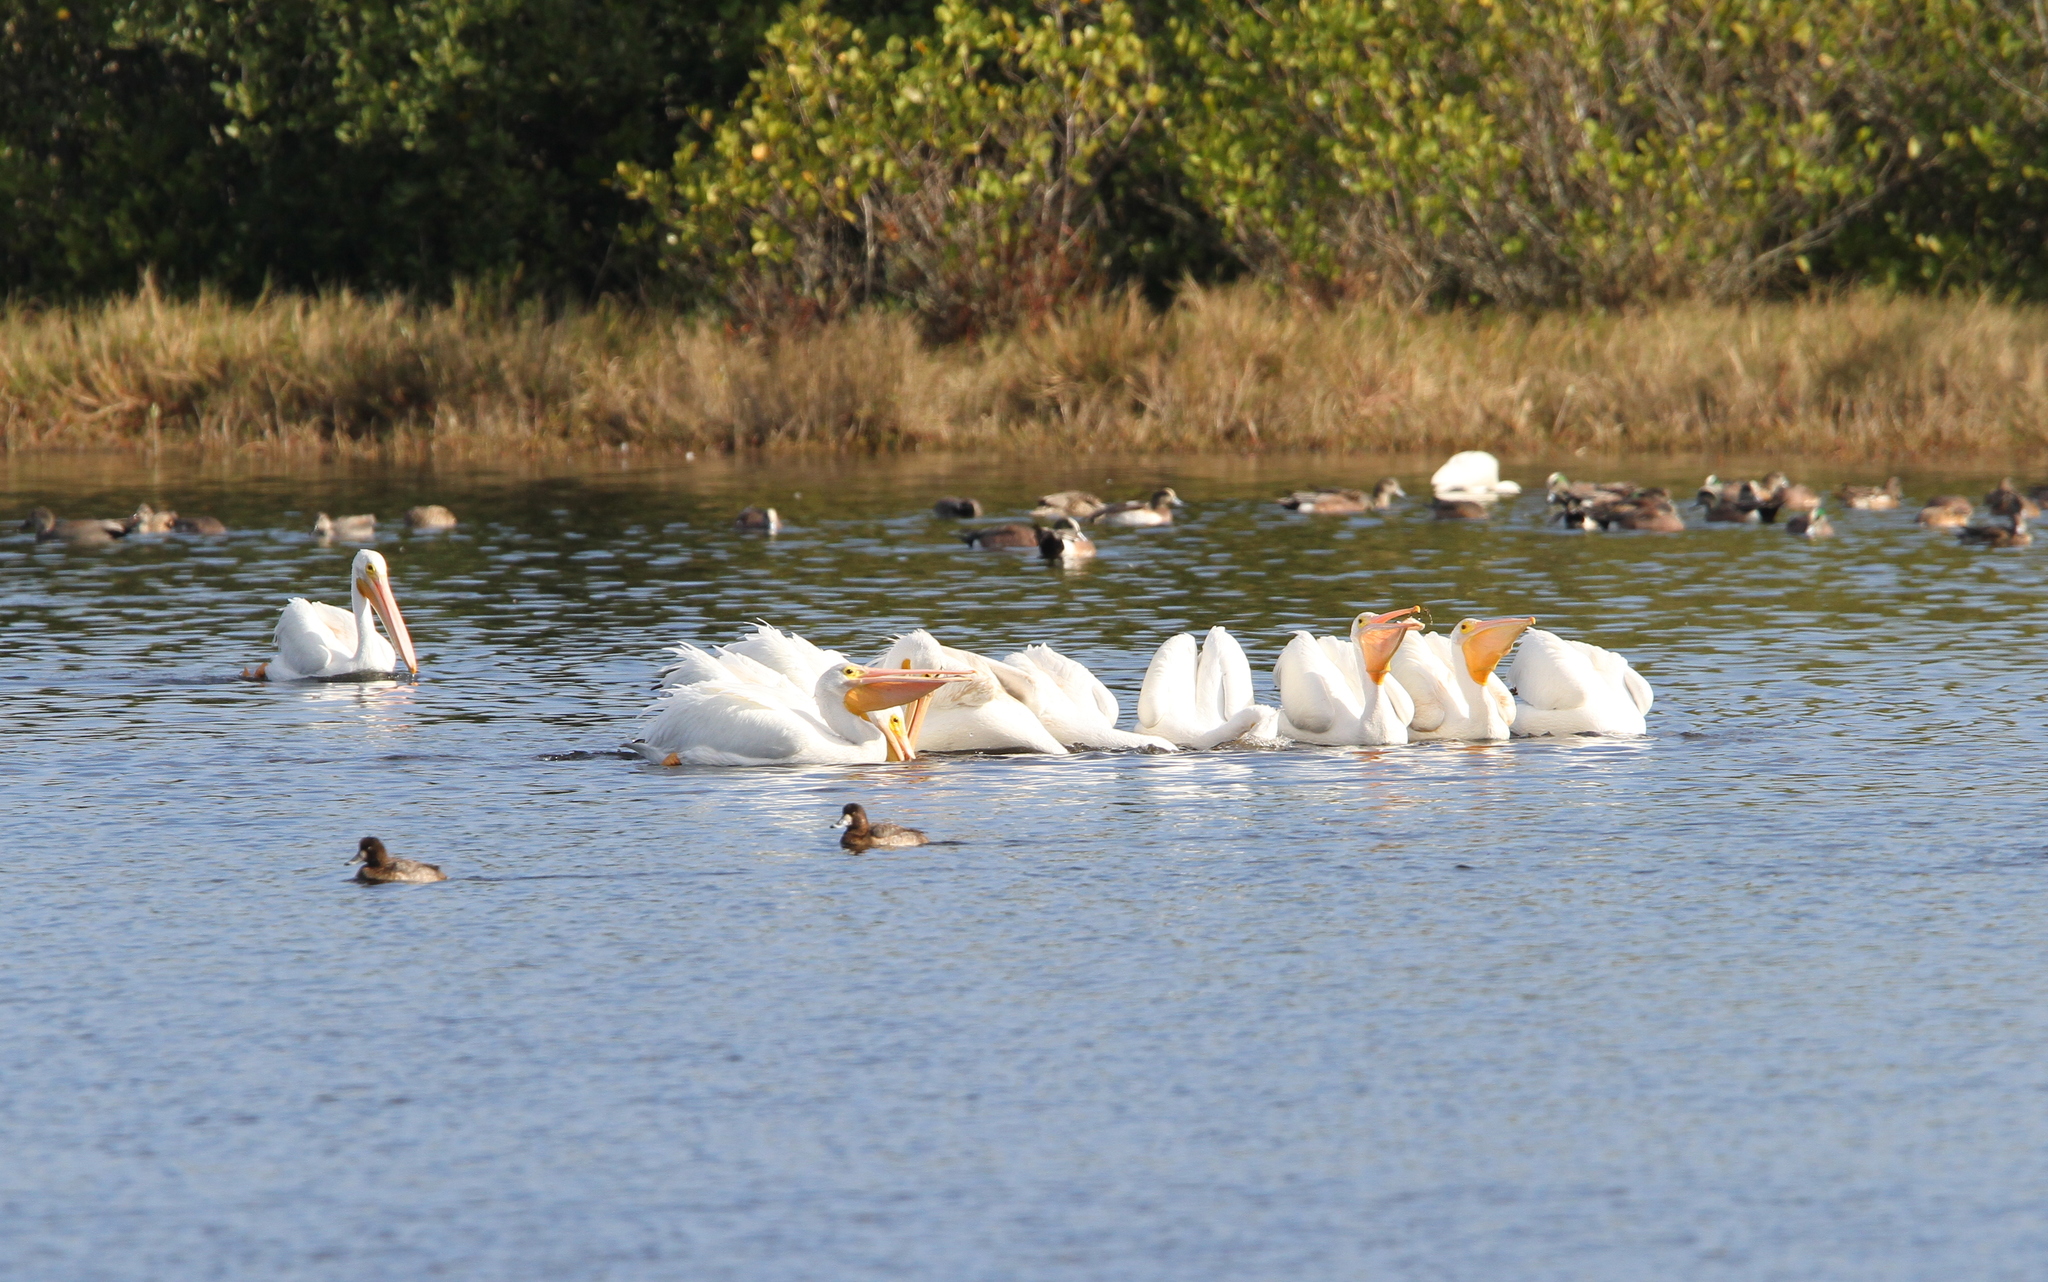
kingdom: Animalia
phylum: Chordata
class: Aves
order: Pelecaniformes
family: Pelecanidae
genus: Pelecanus
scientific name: Pelecanus erythrorhynchos
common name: American white pelican
